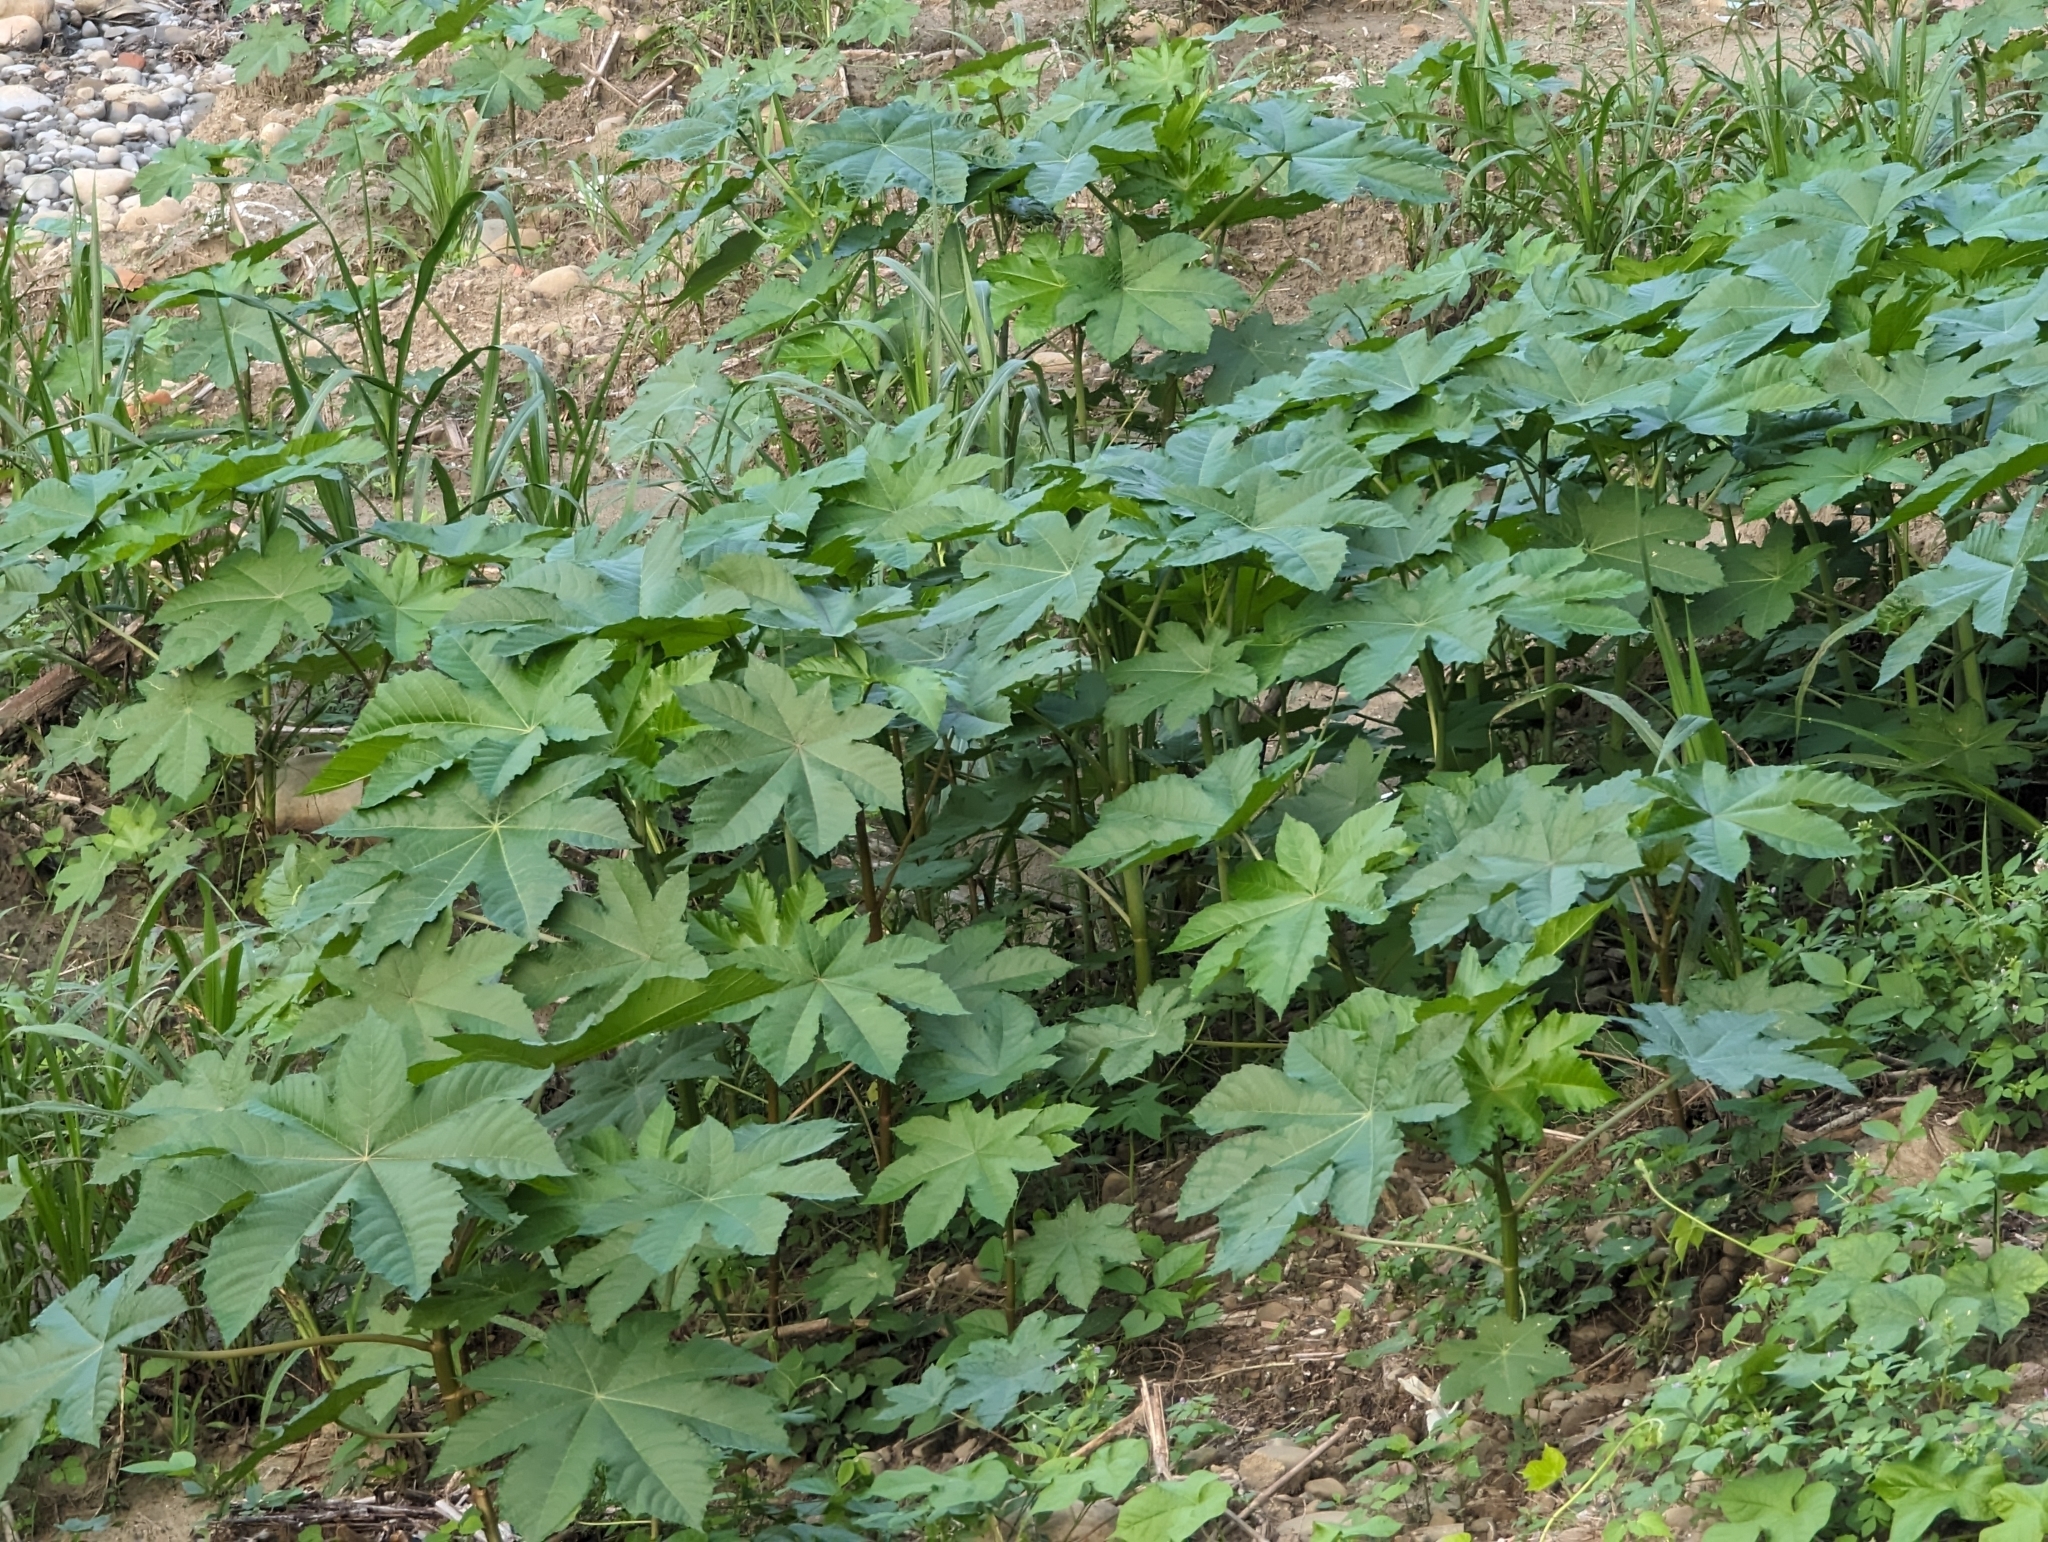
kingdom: Plantae
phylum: Tracheophyta
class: Magnoliopsida
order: Malpighiales
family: Euphorbiaceae
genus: Ricinus
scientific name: Ricinus communis
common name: Castor-oil-plant
